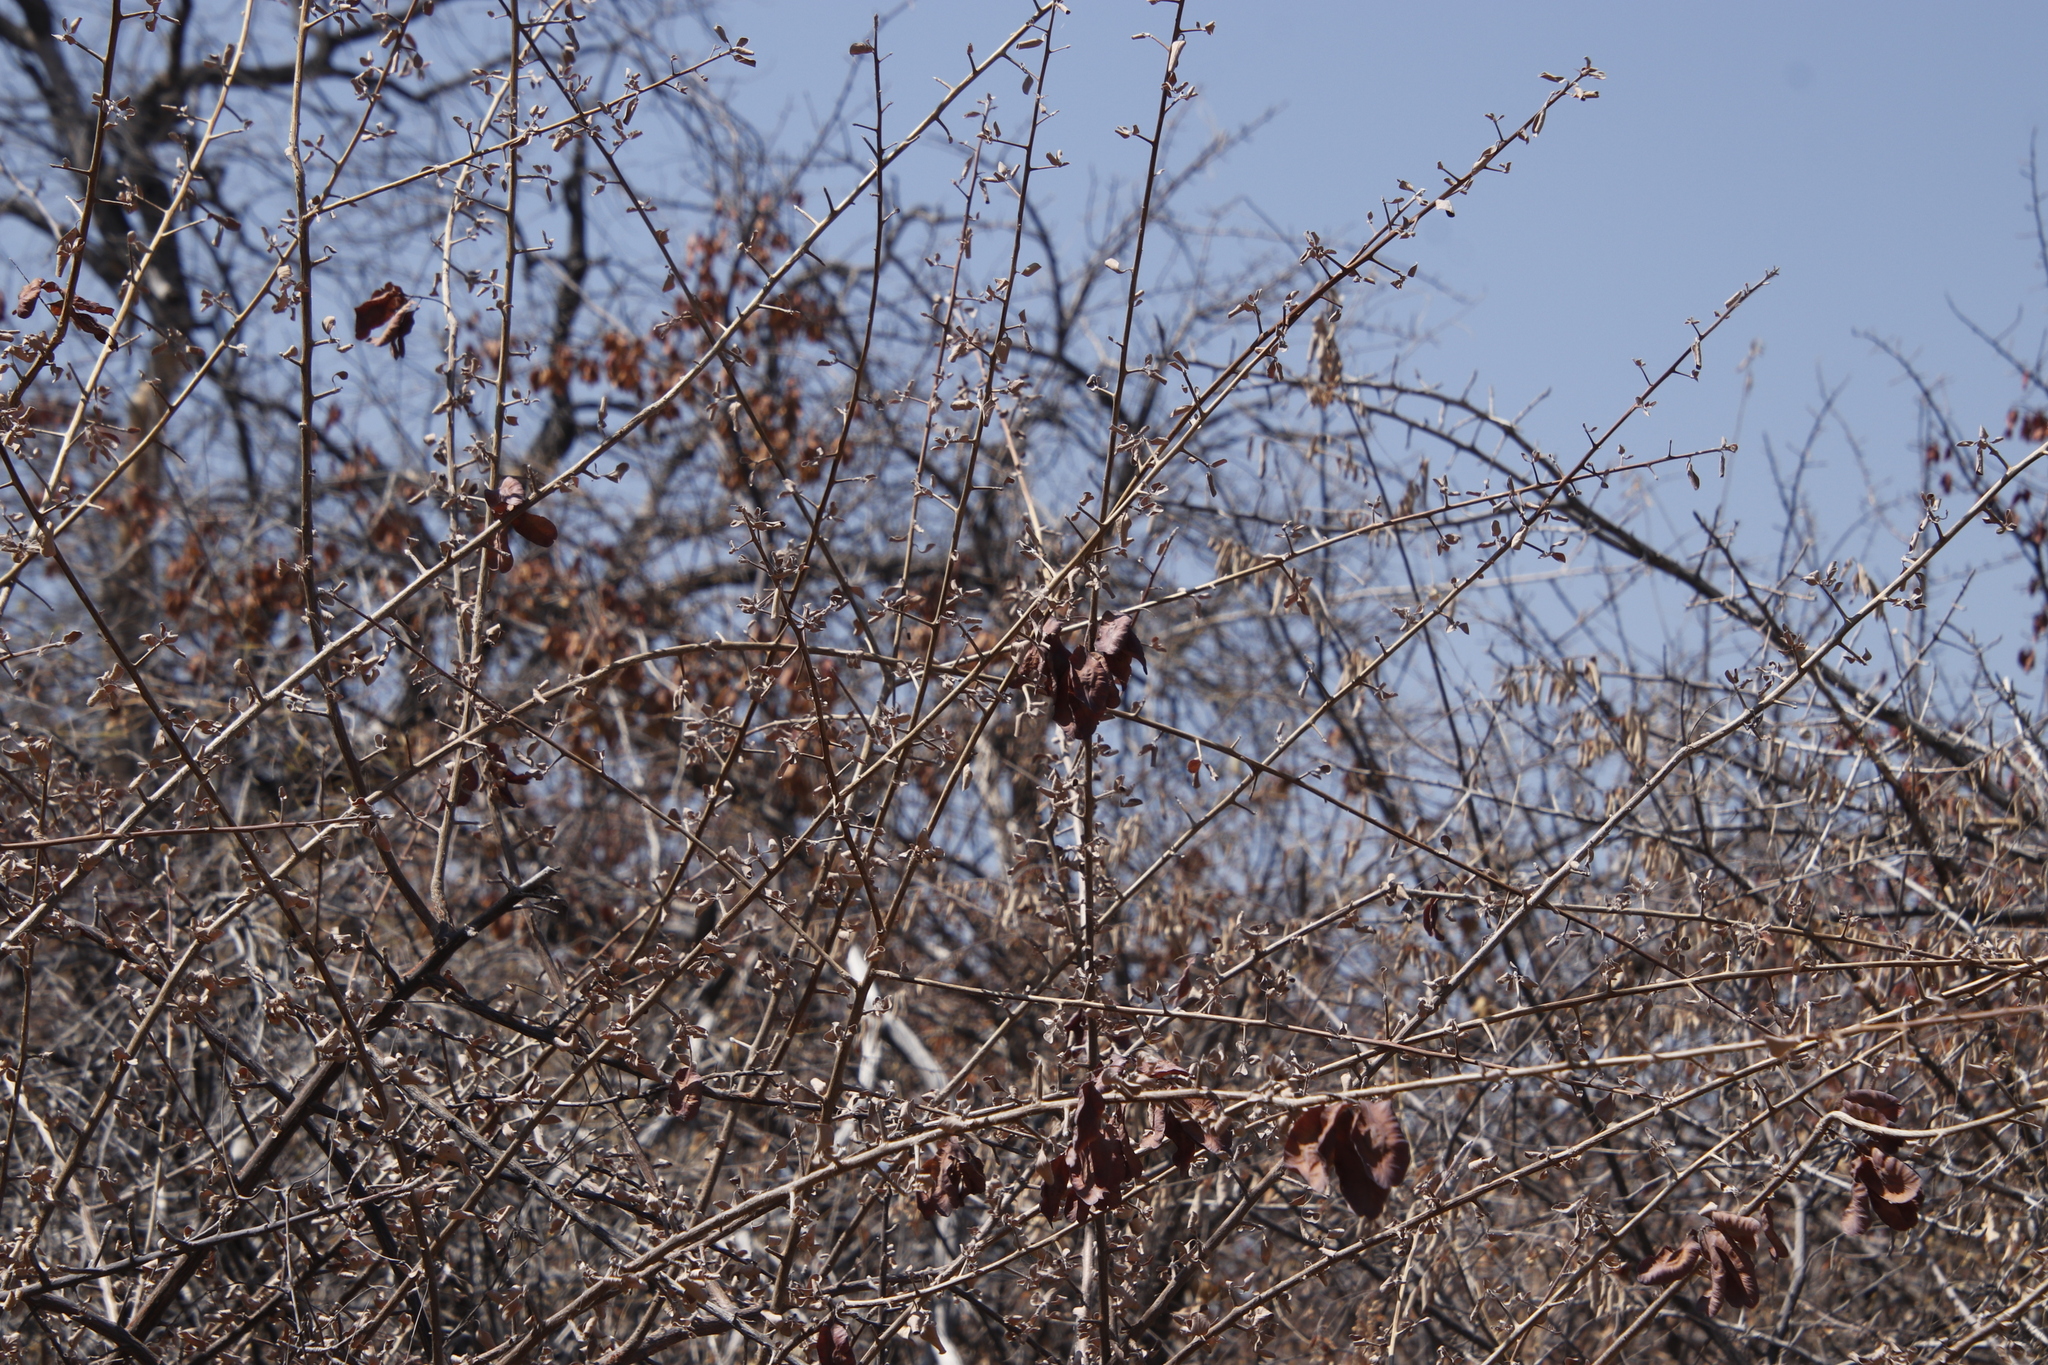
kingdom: Plantae
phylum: Tracheophyta
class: Magnoliopsida
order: Myrtales
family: Combretaceae
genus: Terminalia
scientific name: Terminalia prunioides
